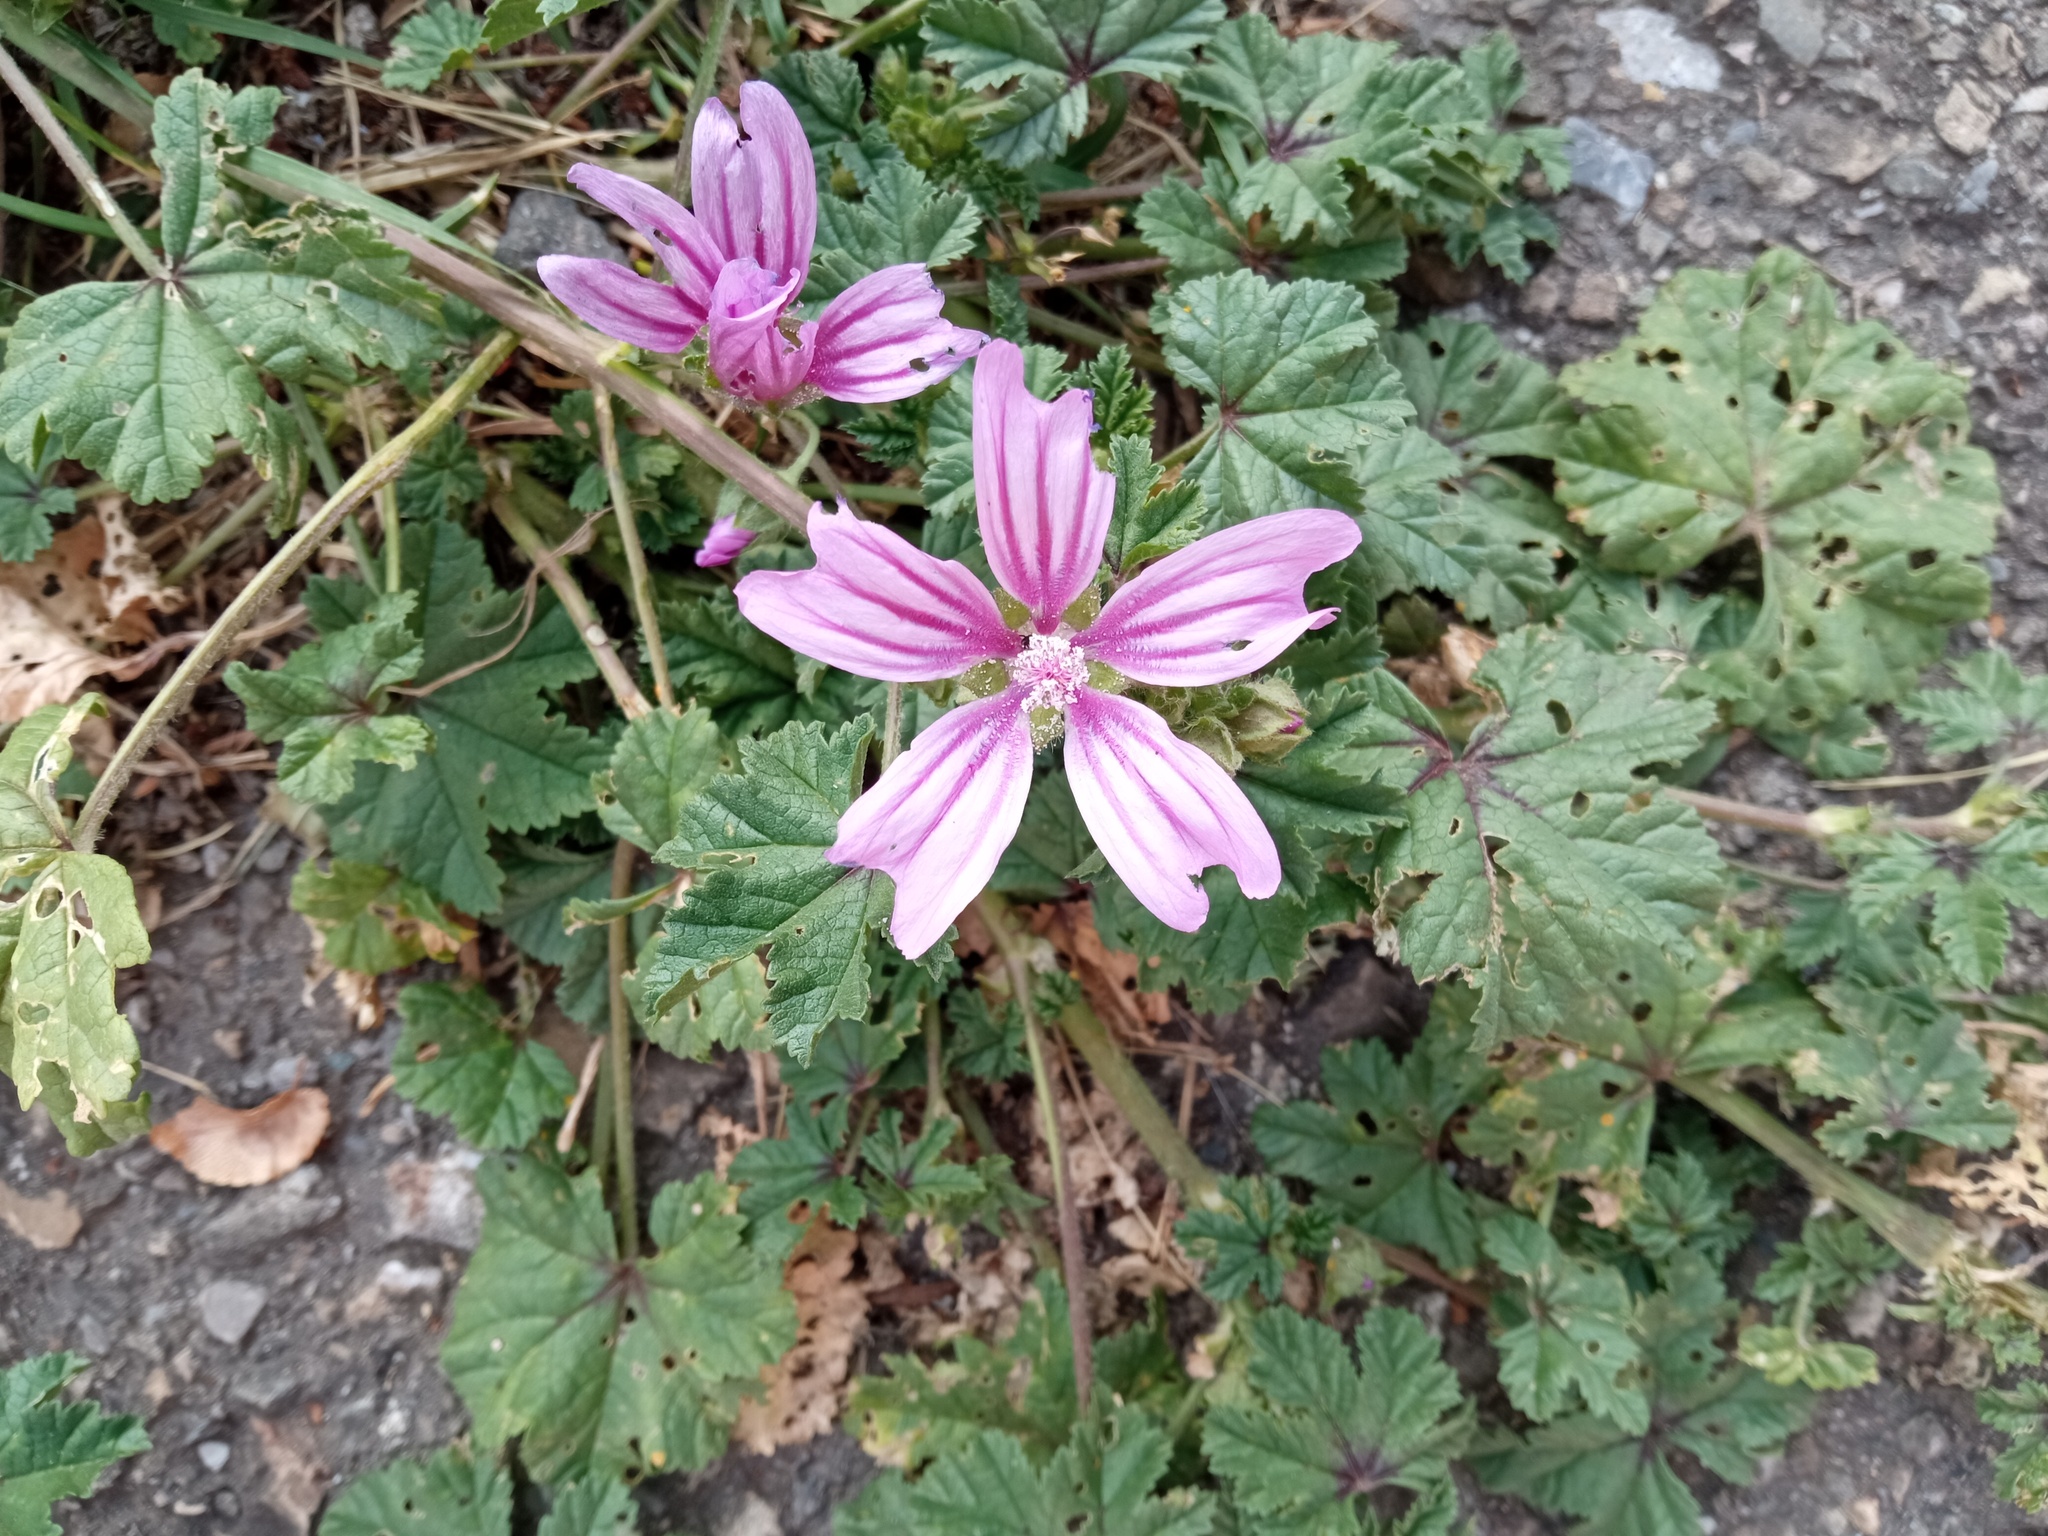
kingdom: Plantae
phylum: Tracheophyta
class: Magnoliopsida
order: Malvales
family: Malvaceae
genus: Malva
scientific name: Malva sylvestris
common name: Common mallow
